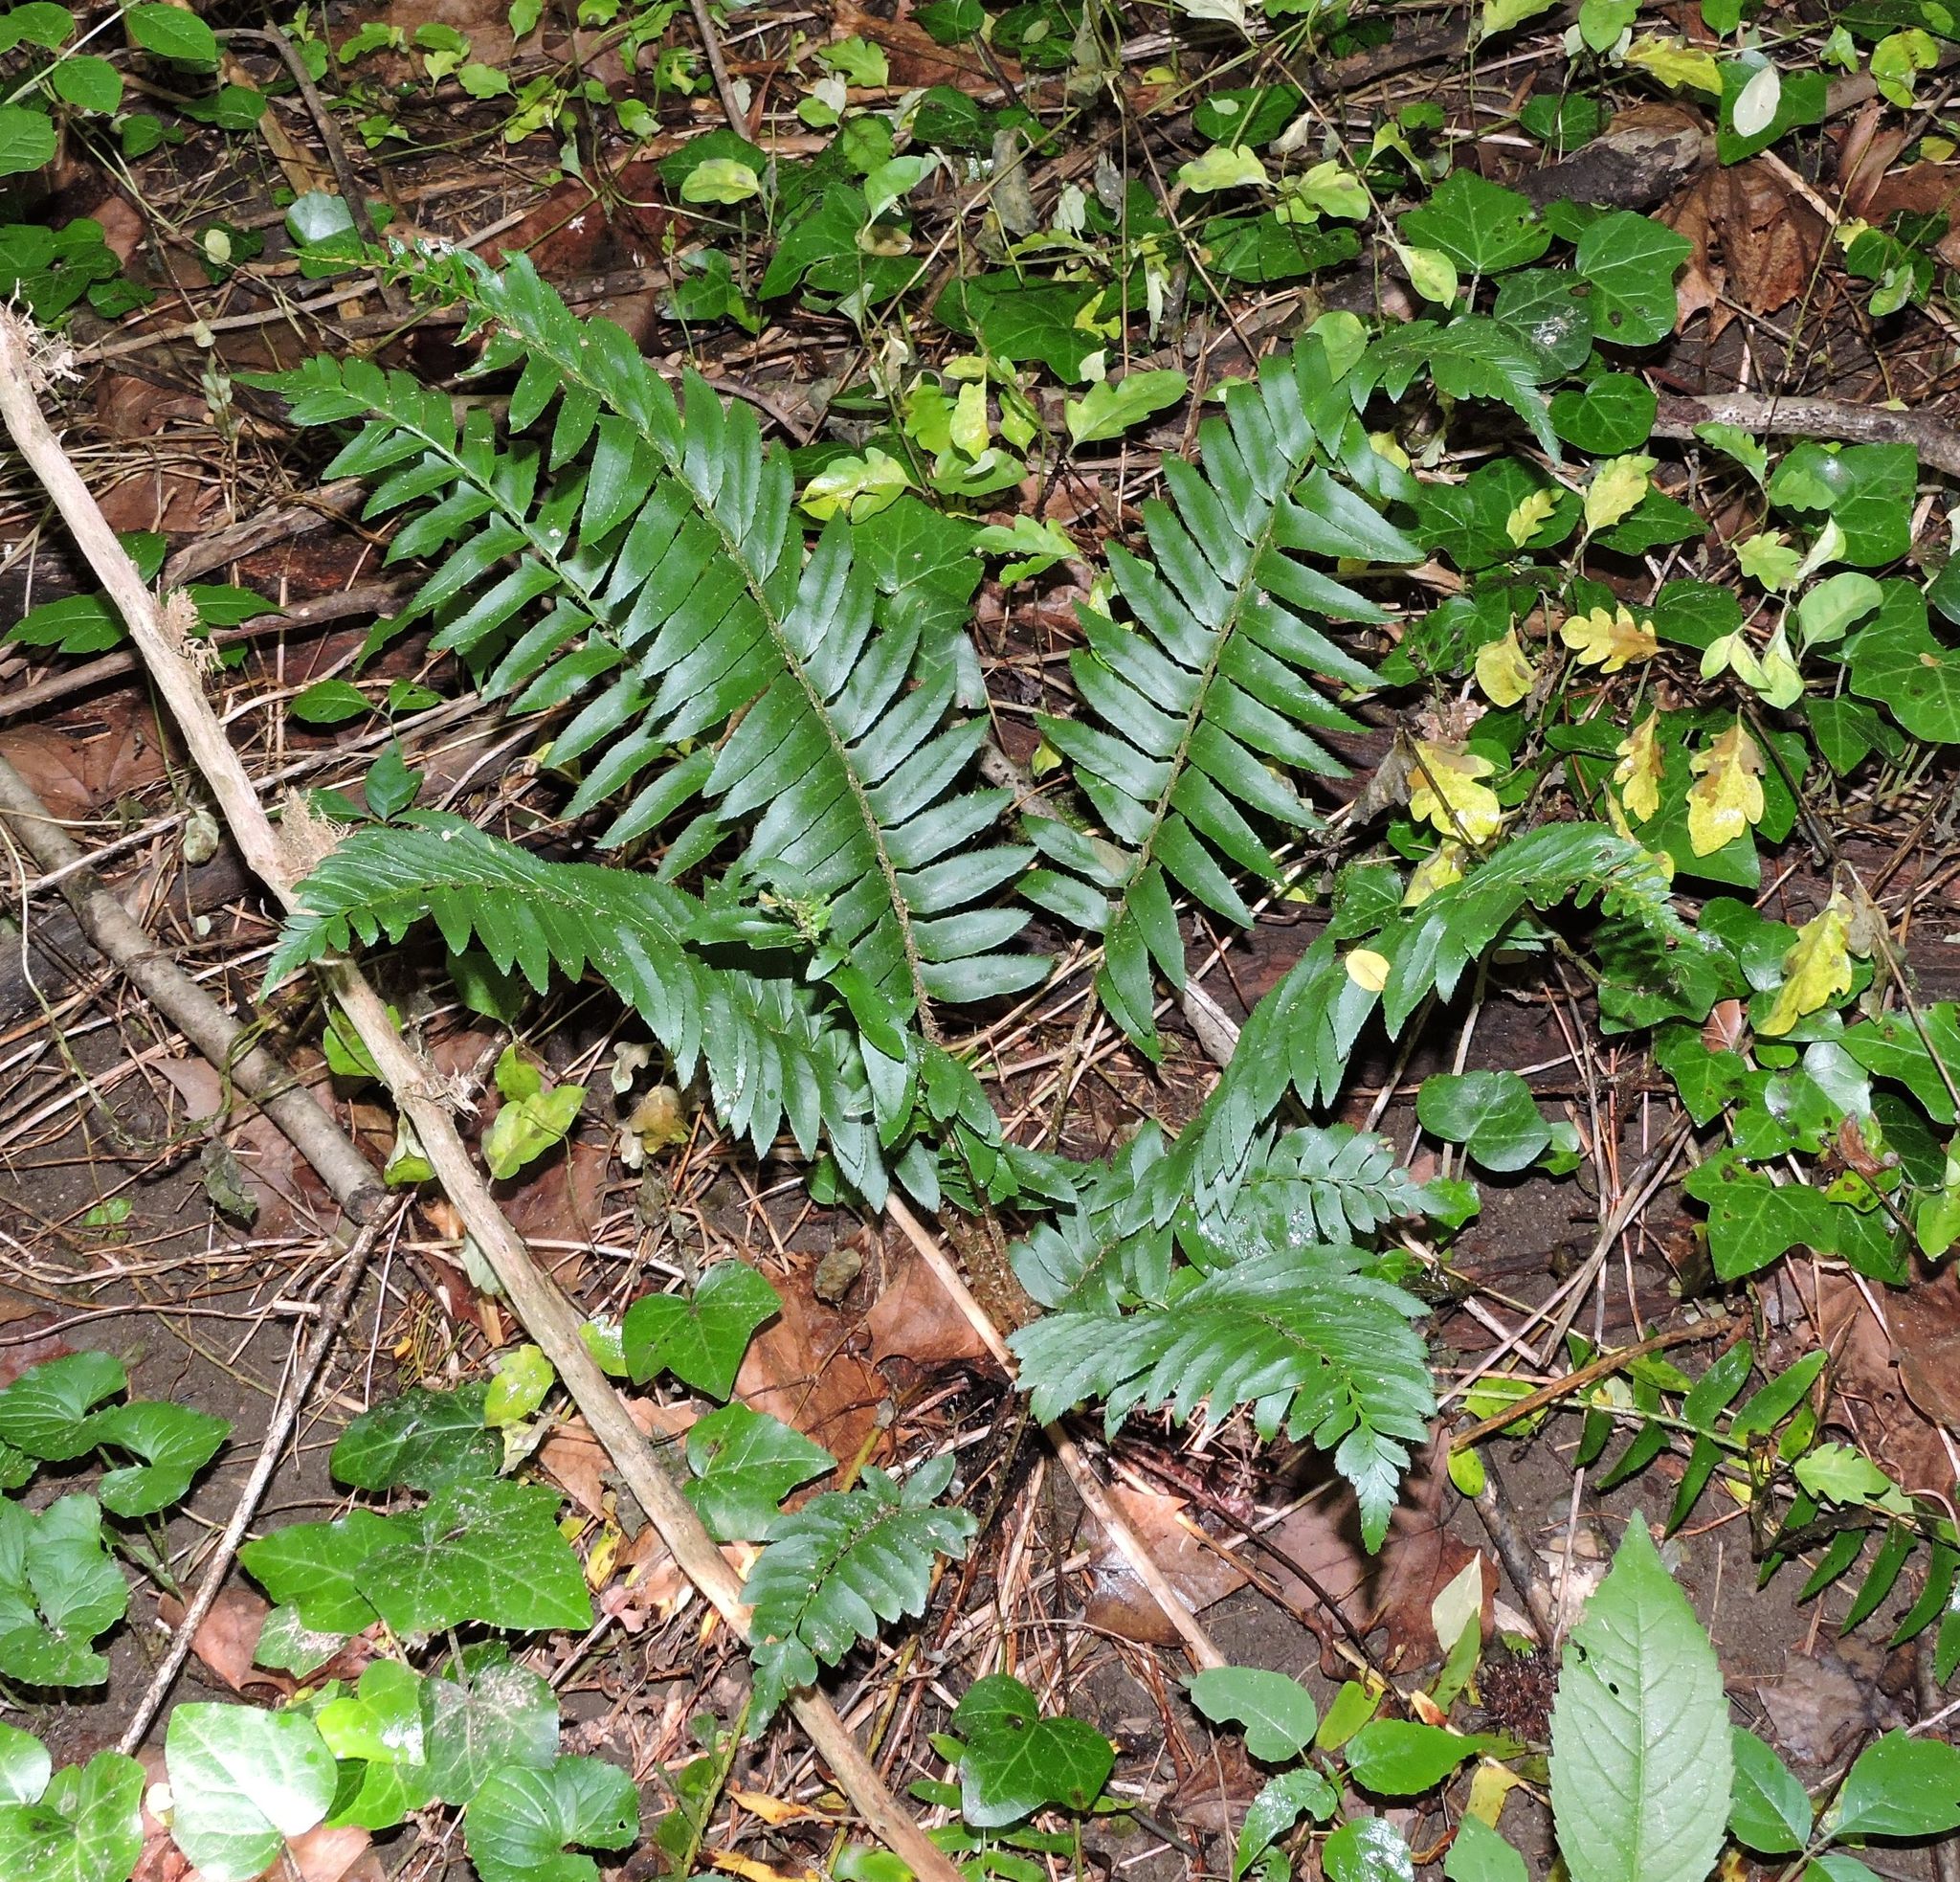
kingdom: Plantae
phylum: Tracheophyta
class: Polypodiopsida
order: Polypodiales
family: Dryopteridaceae
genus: Polystichum
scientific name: Polystichum acrostichoides
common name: Christmas fern
